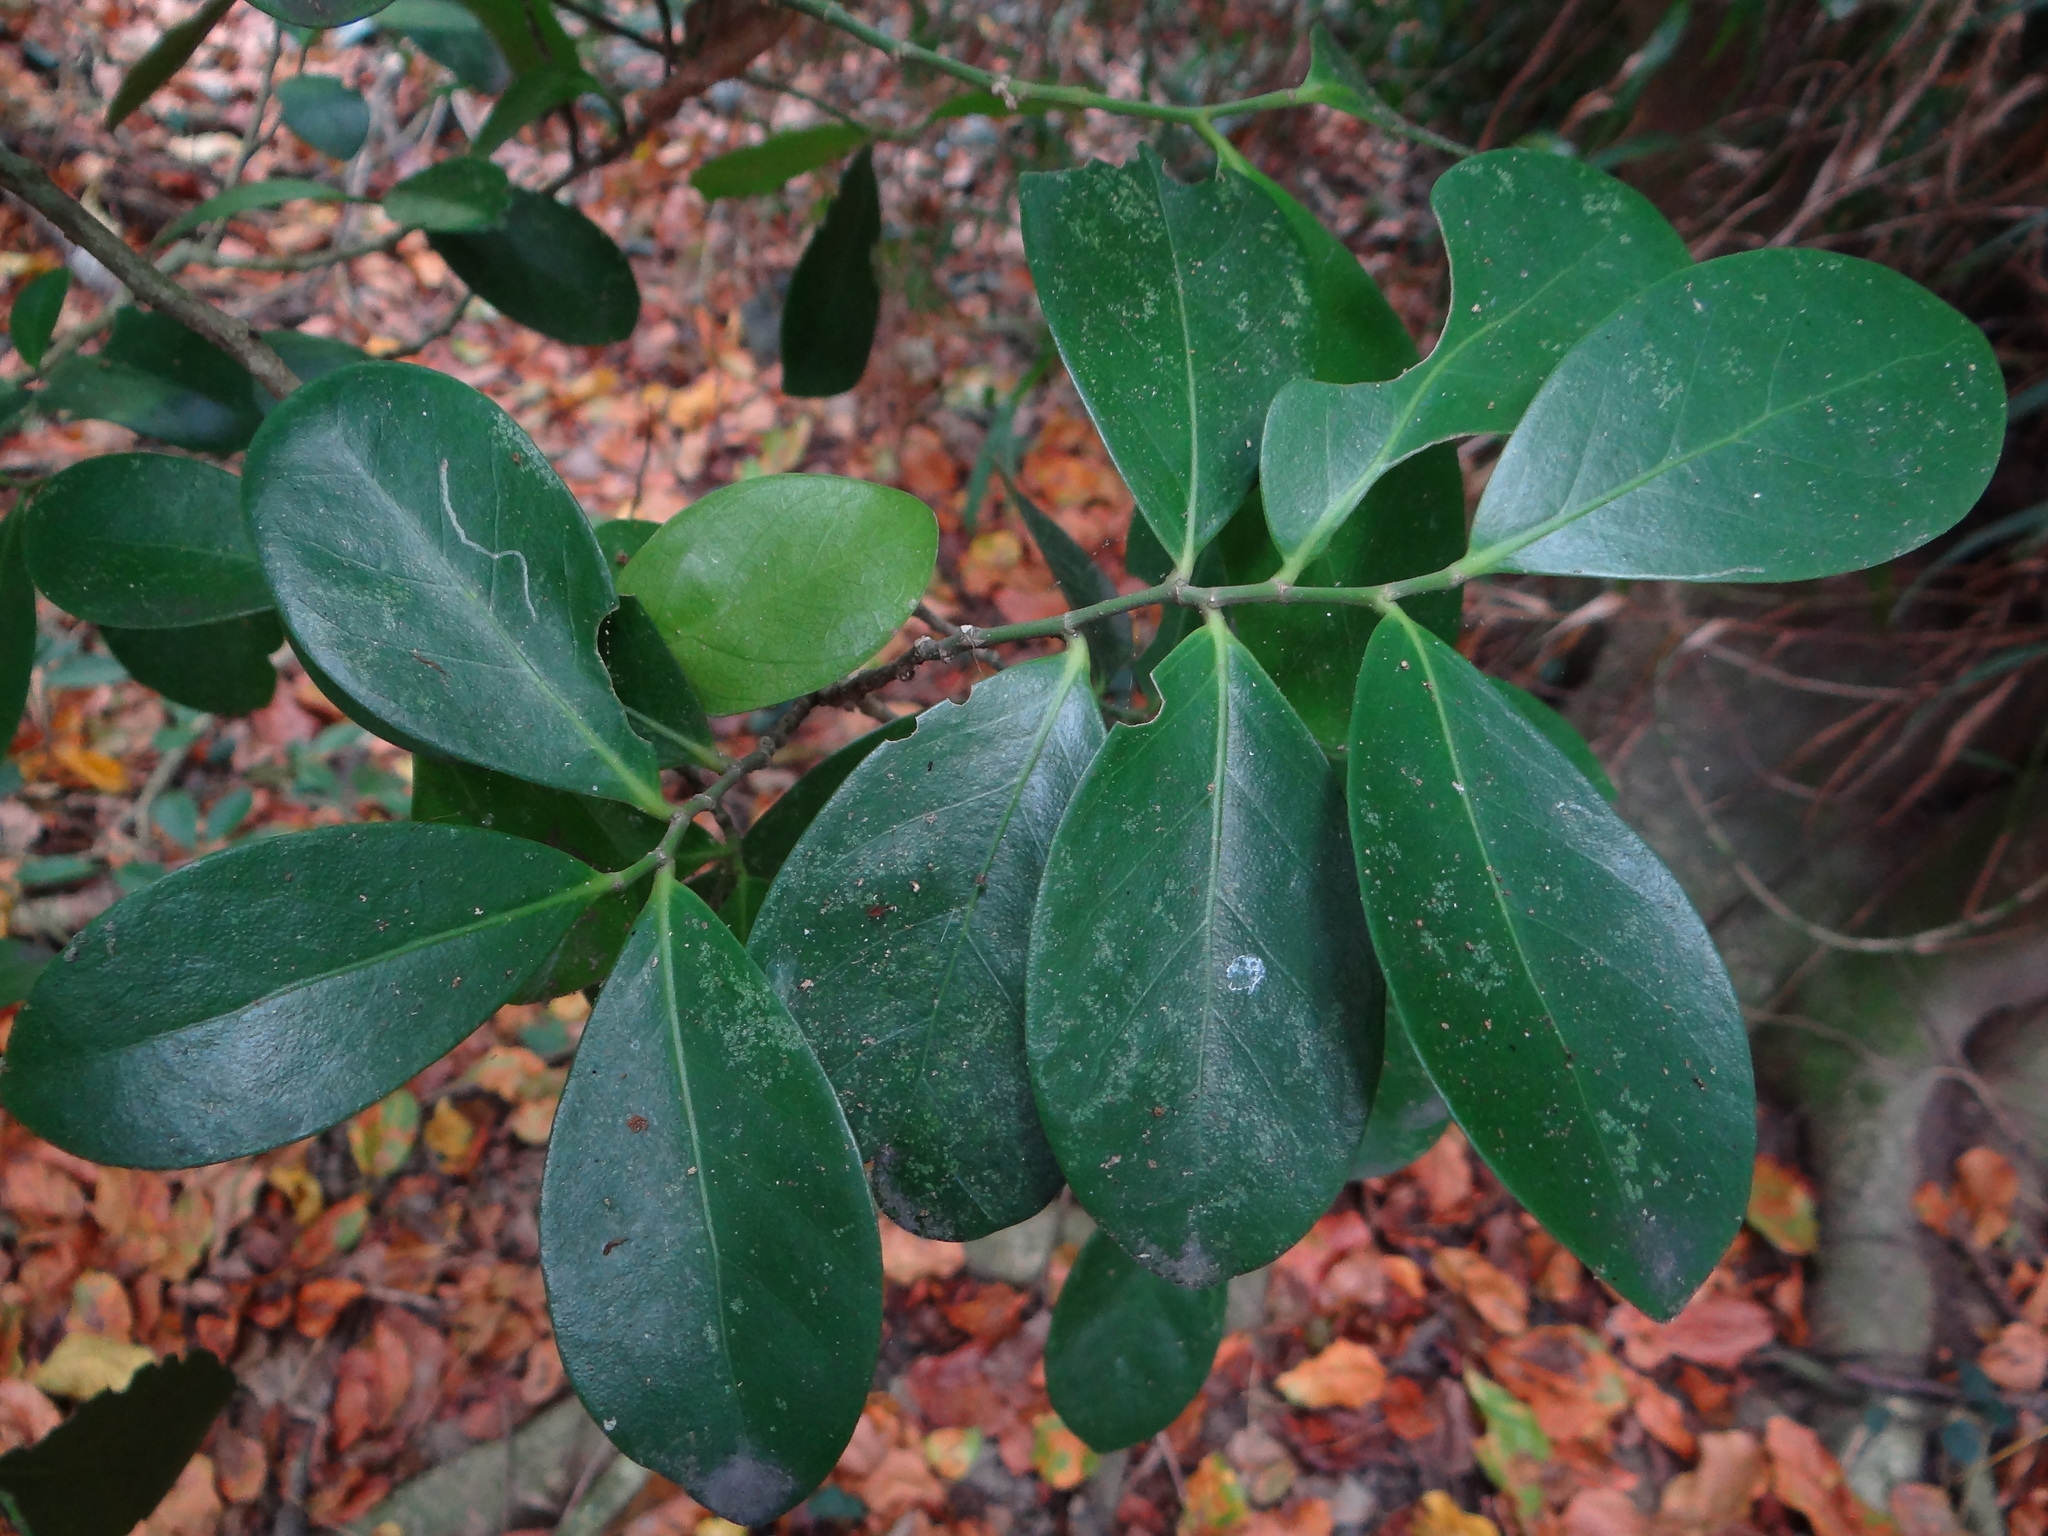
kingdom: Plantae
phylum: Tracheophyta
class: Magnoliopsida
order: Malpighiales
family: Euphorbiaceae
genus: Suregada
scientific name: Suregada aequorea
